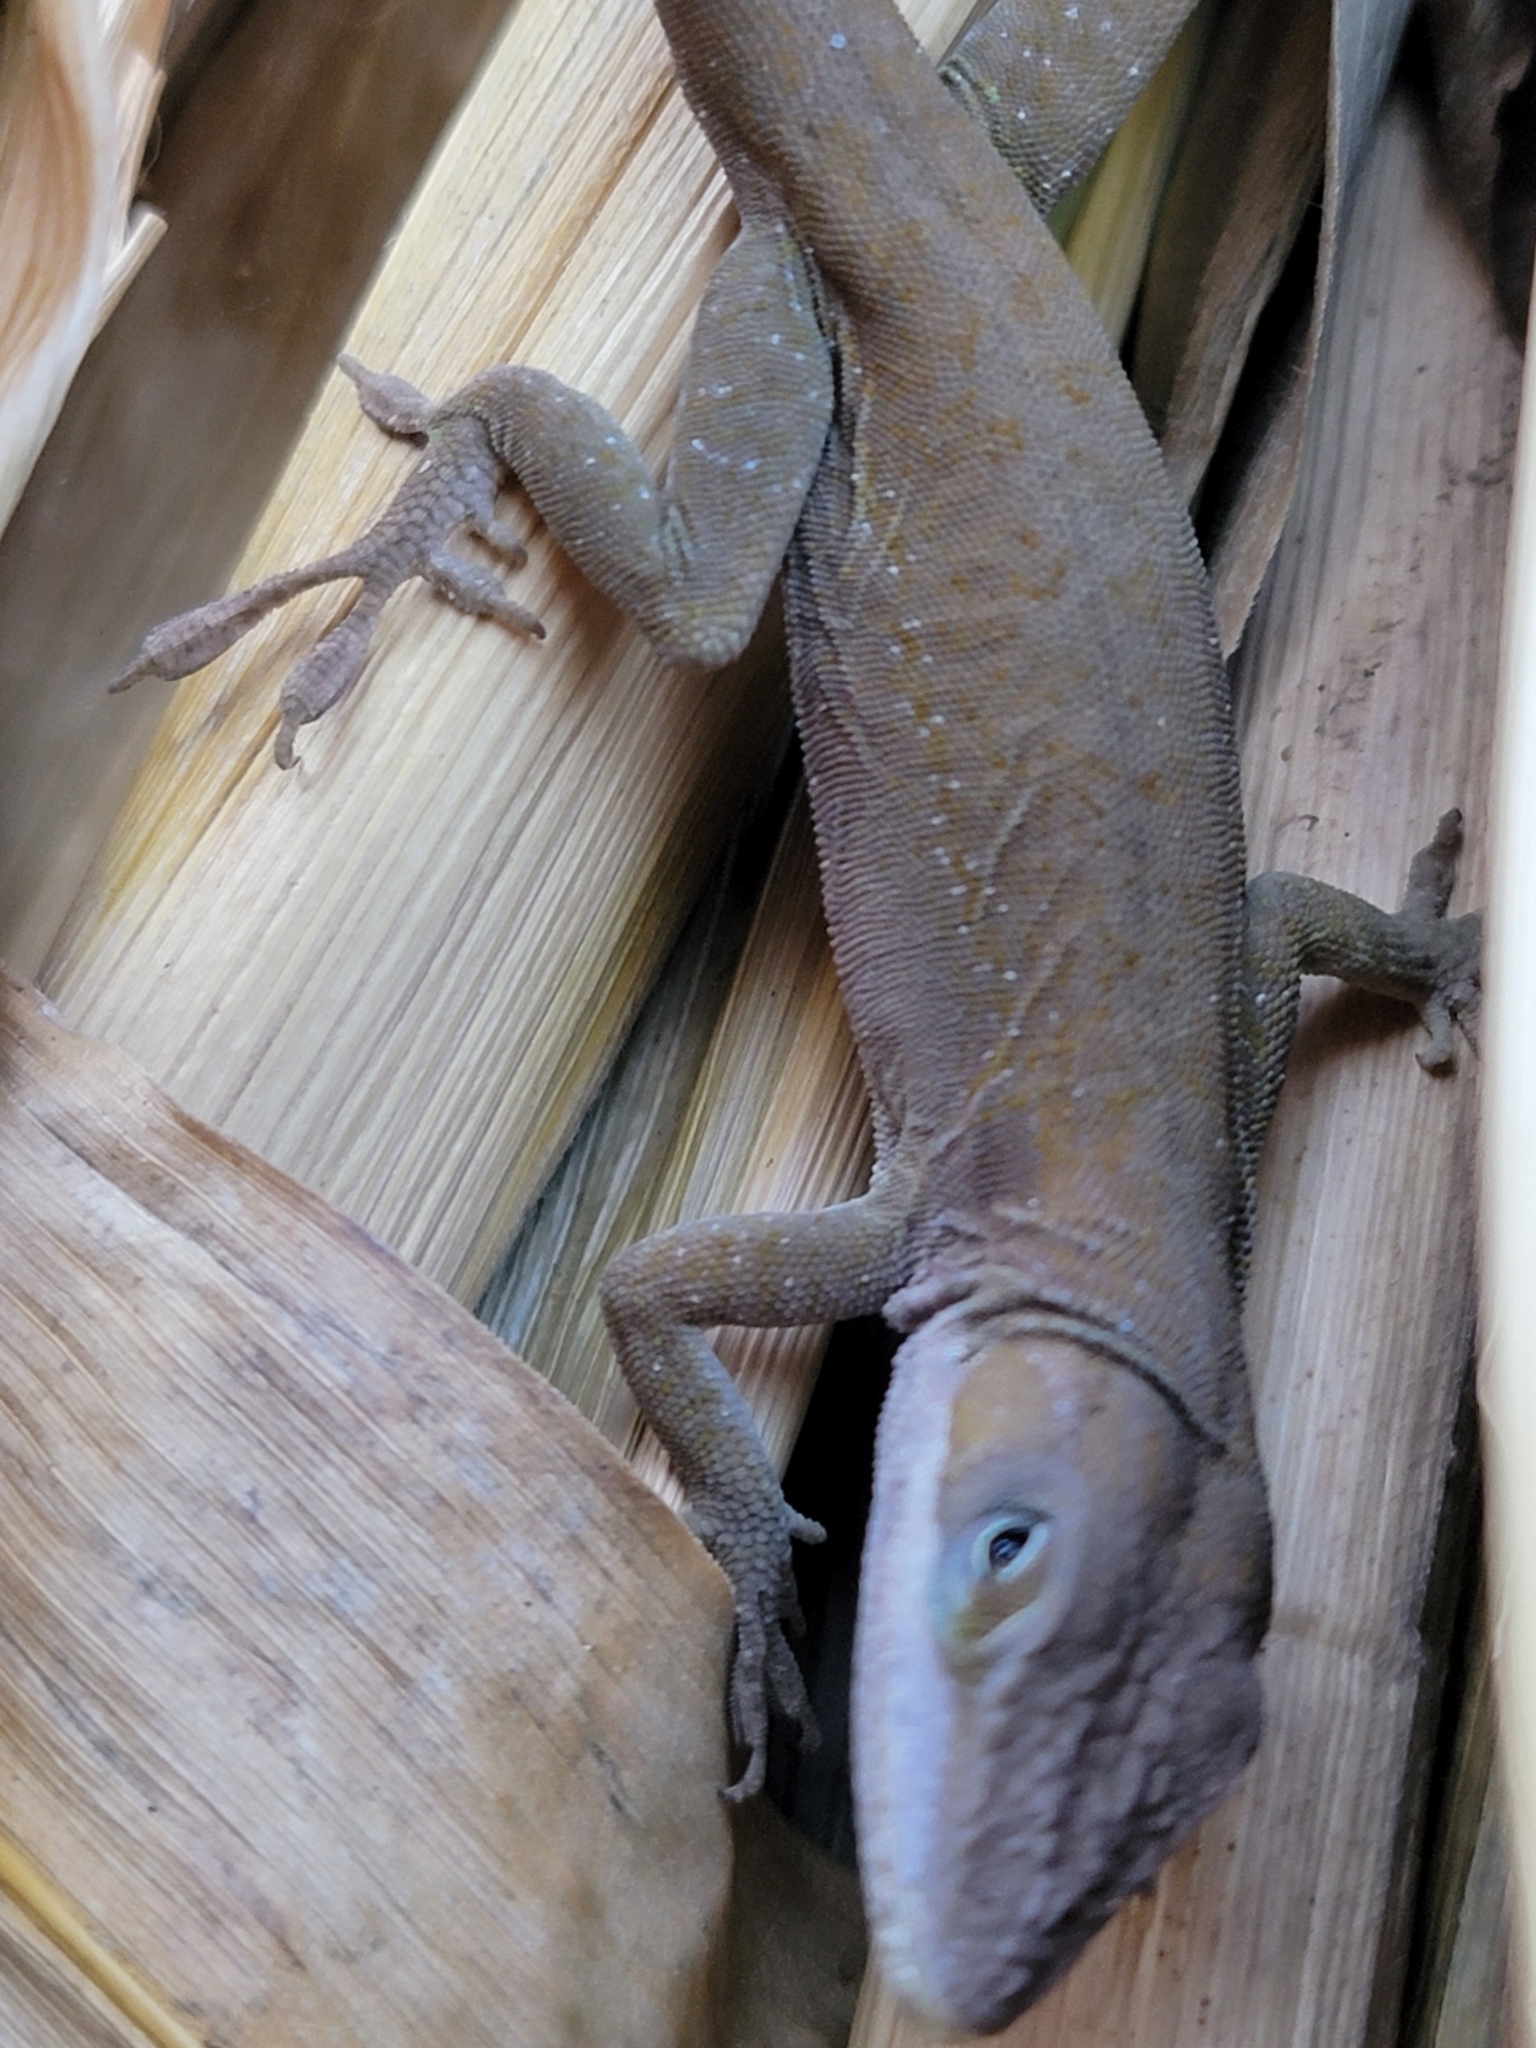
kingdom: Animalia
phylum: Chordata
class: Squamata
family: Dactyloidae
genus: Anolis
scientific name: Anolis carolinensis
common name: Green anole
